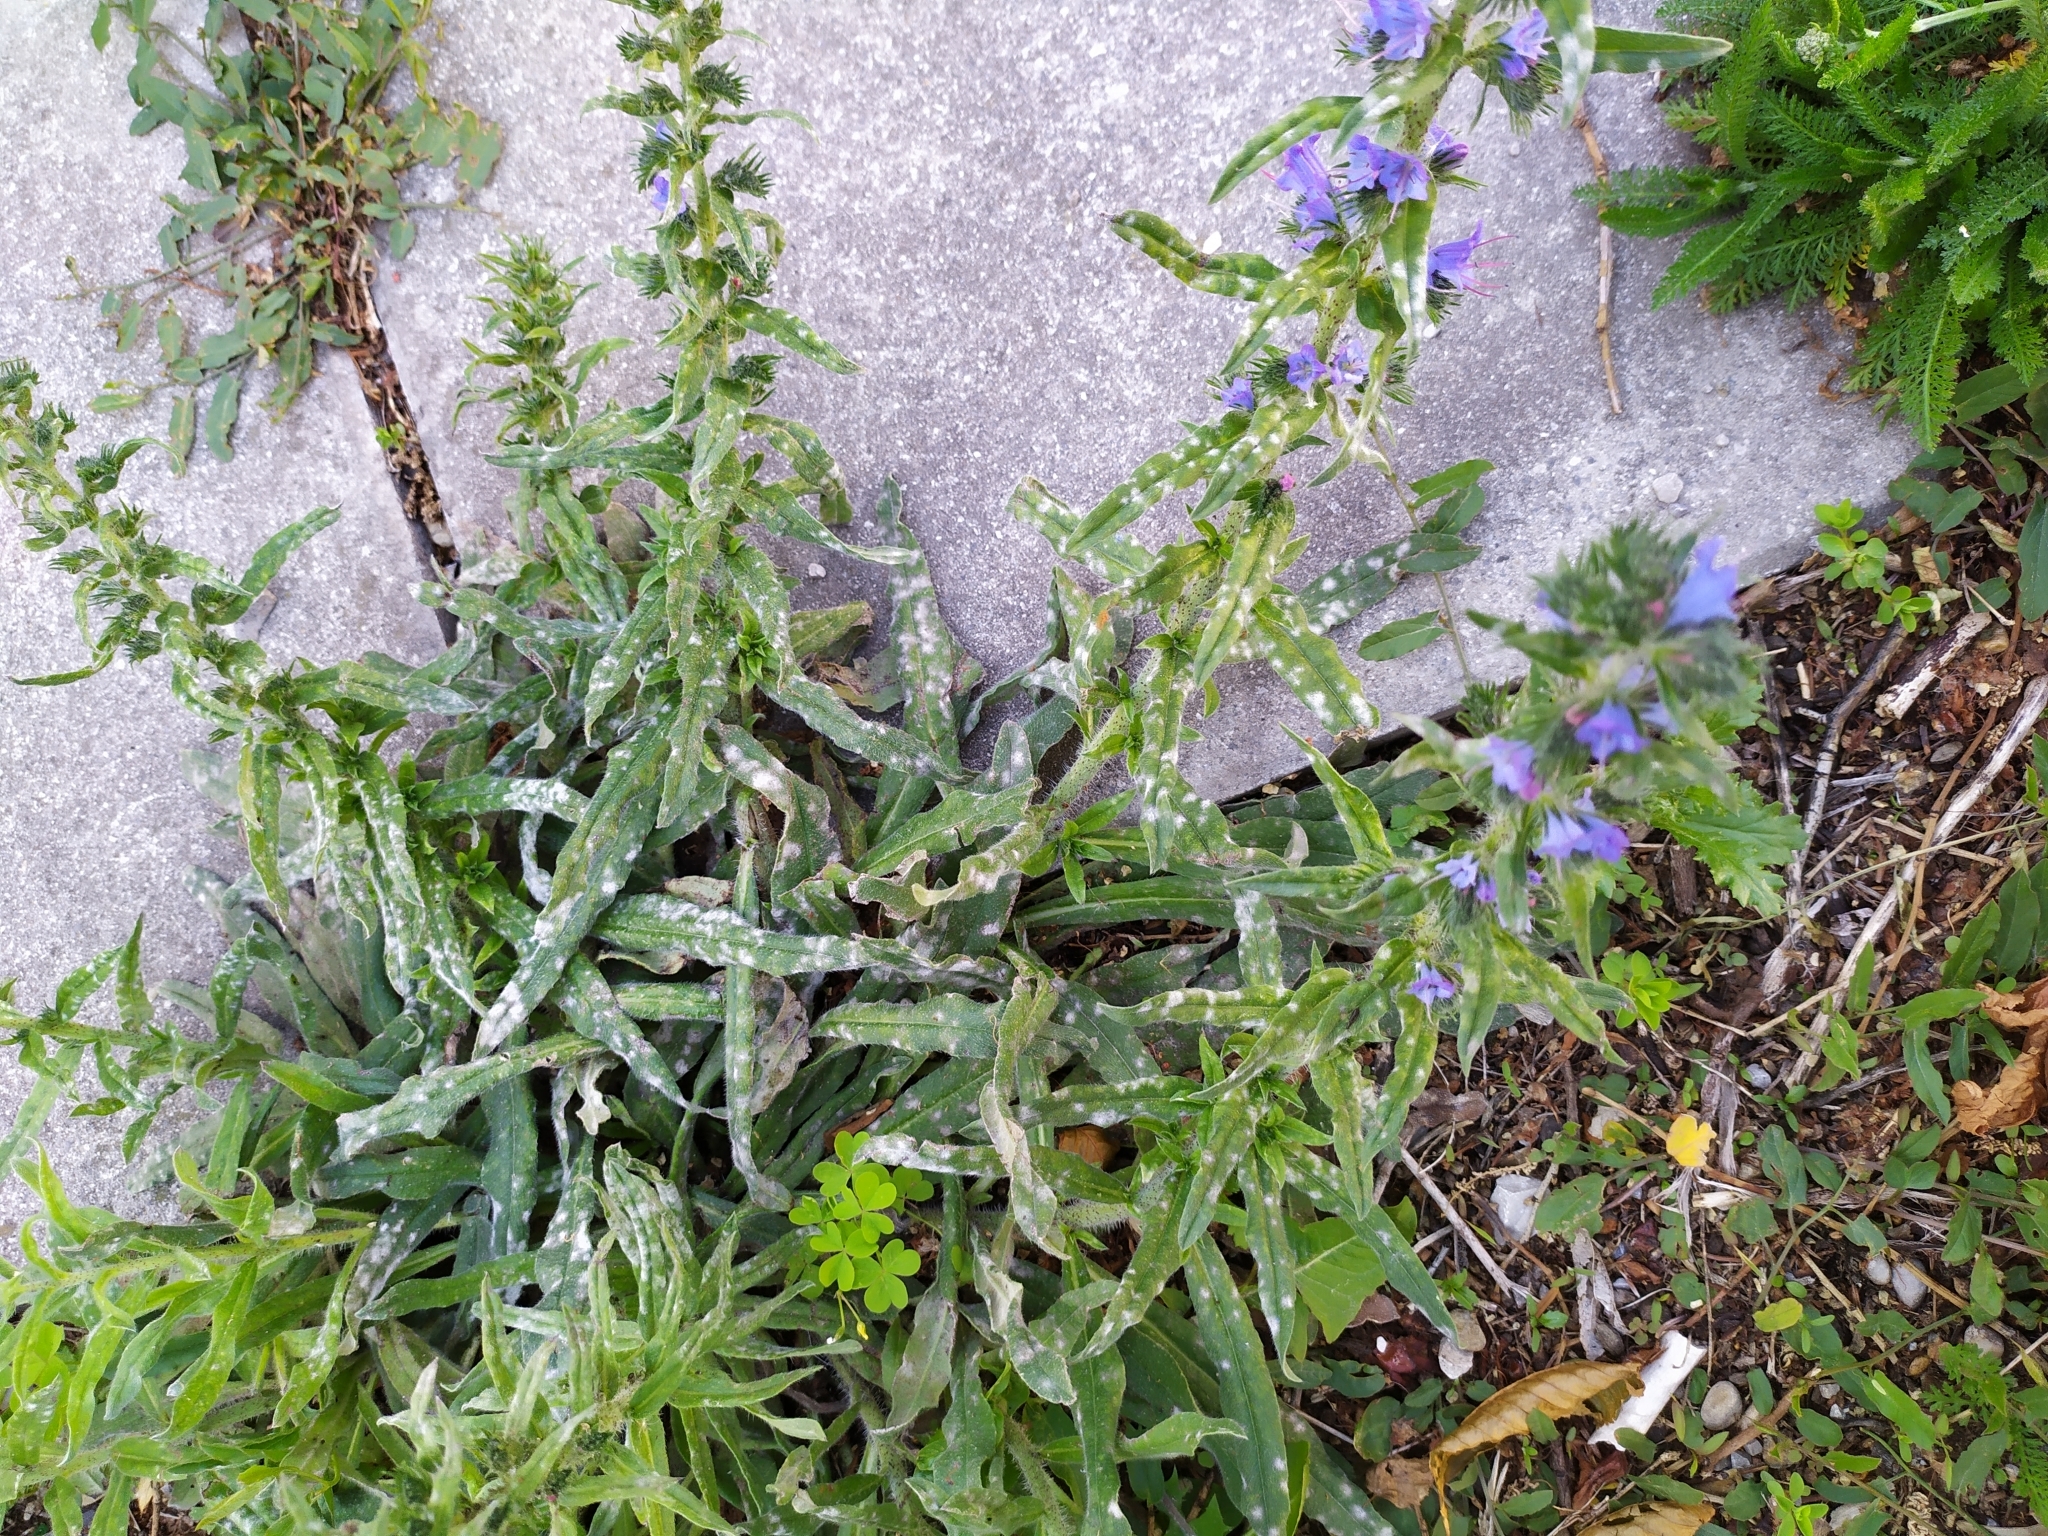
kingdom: Fungi
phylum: Ascomycota
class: Leotiomycetes
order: Helotiales
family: Erysiphaceae
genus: Golovinomyces
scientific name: Golovinomyces asperifolii
